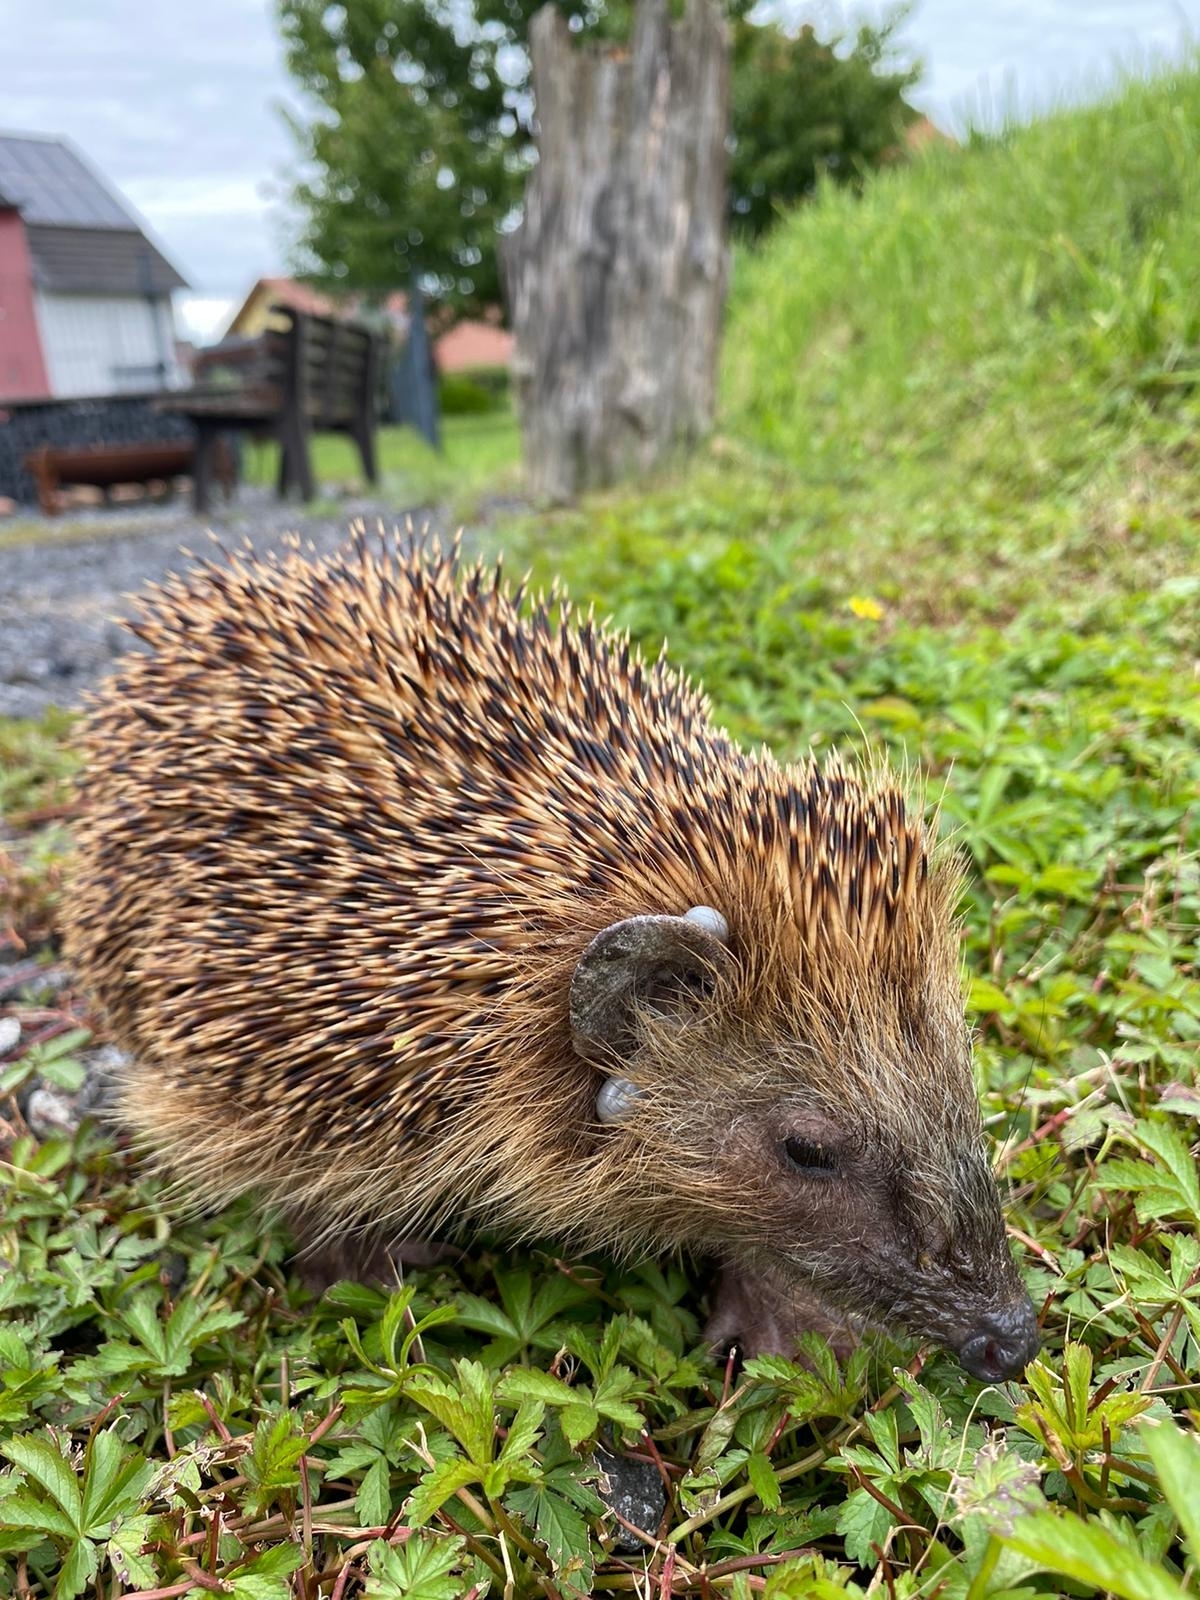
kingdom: Animalia
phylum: Chordata
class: Mammalia
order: Erinaceomorpha
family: Erinaceidae
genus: Erinaceus
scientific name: Erinaceus europaeus
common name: West european hedgehog
